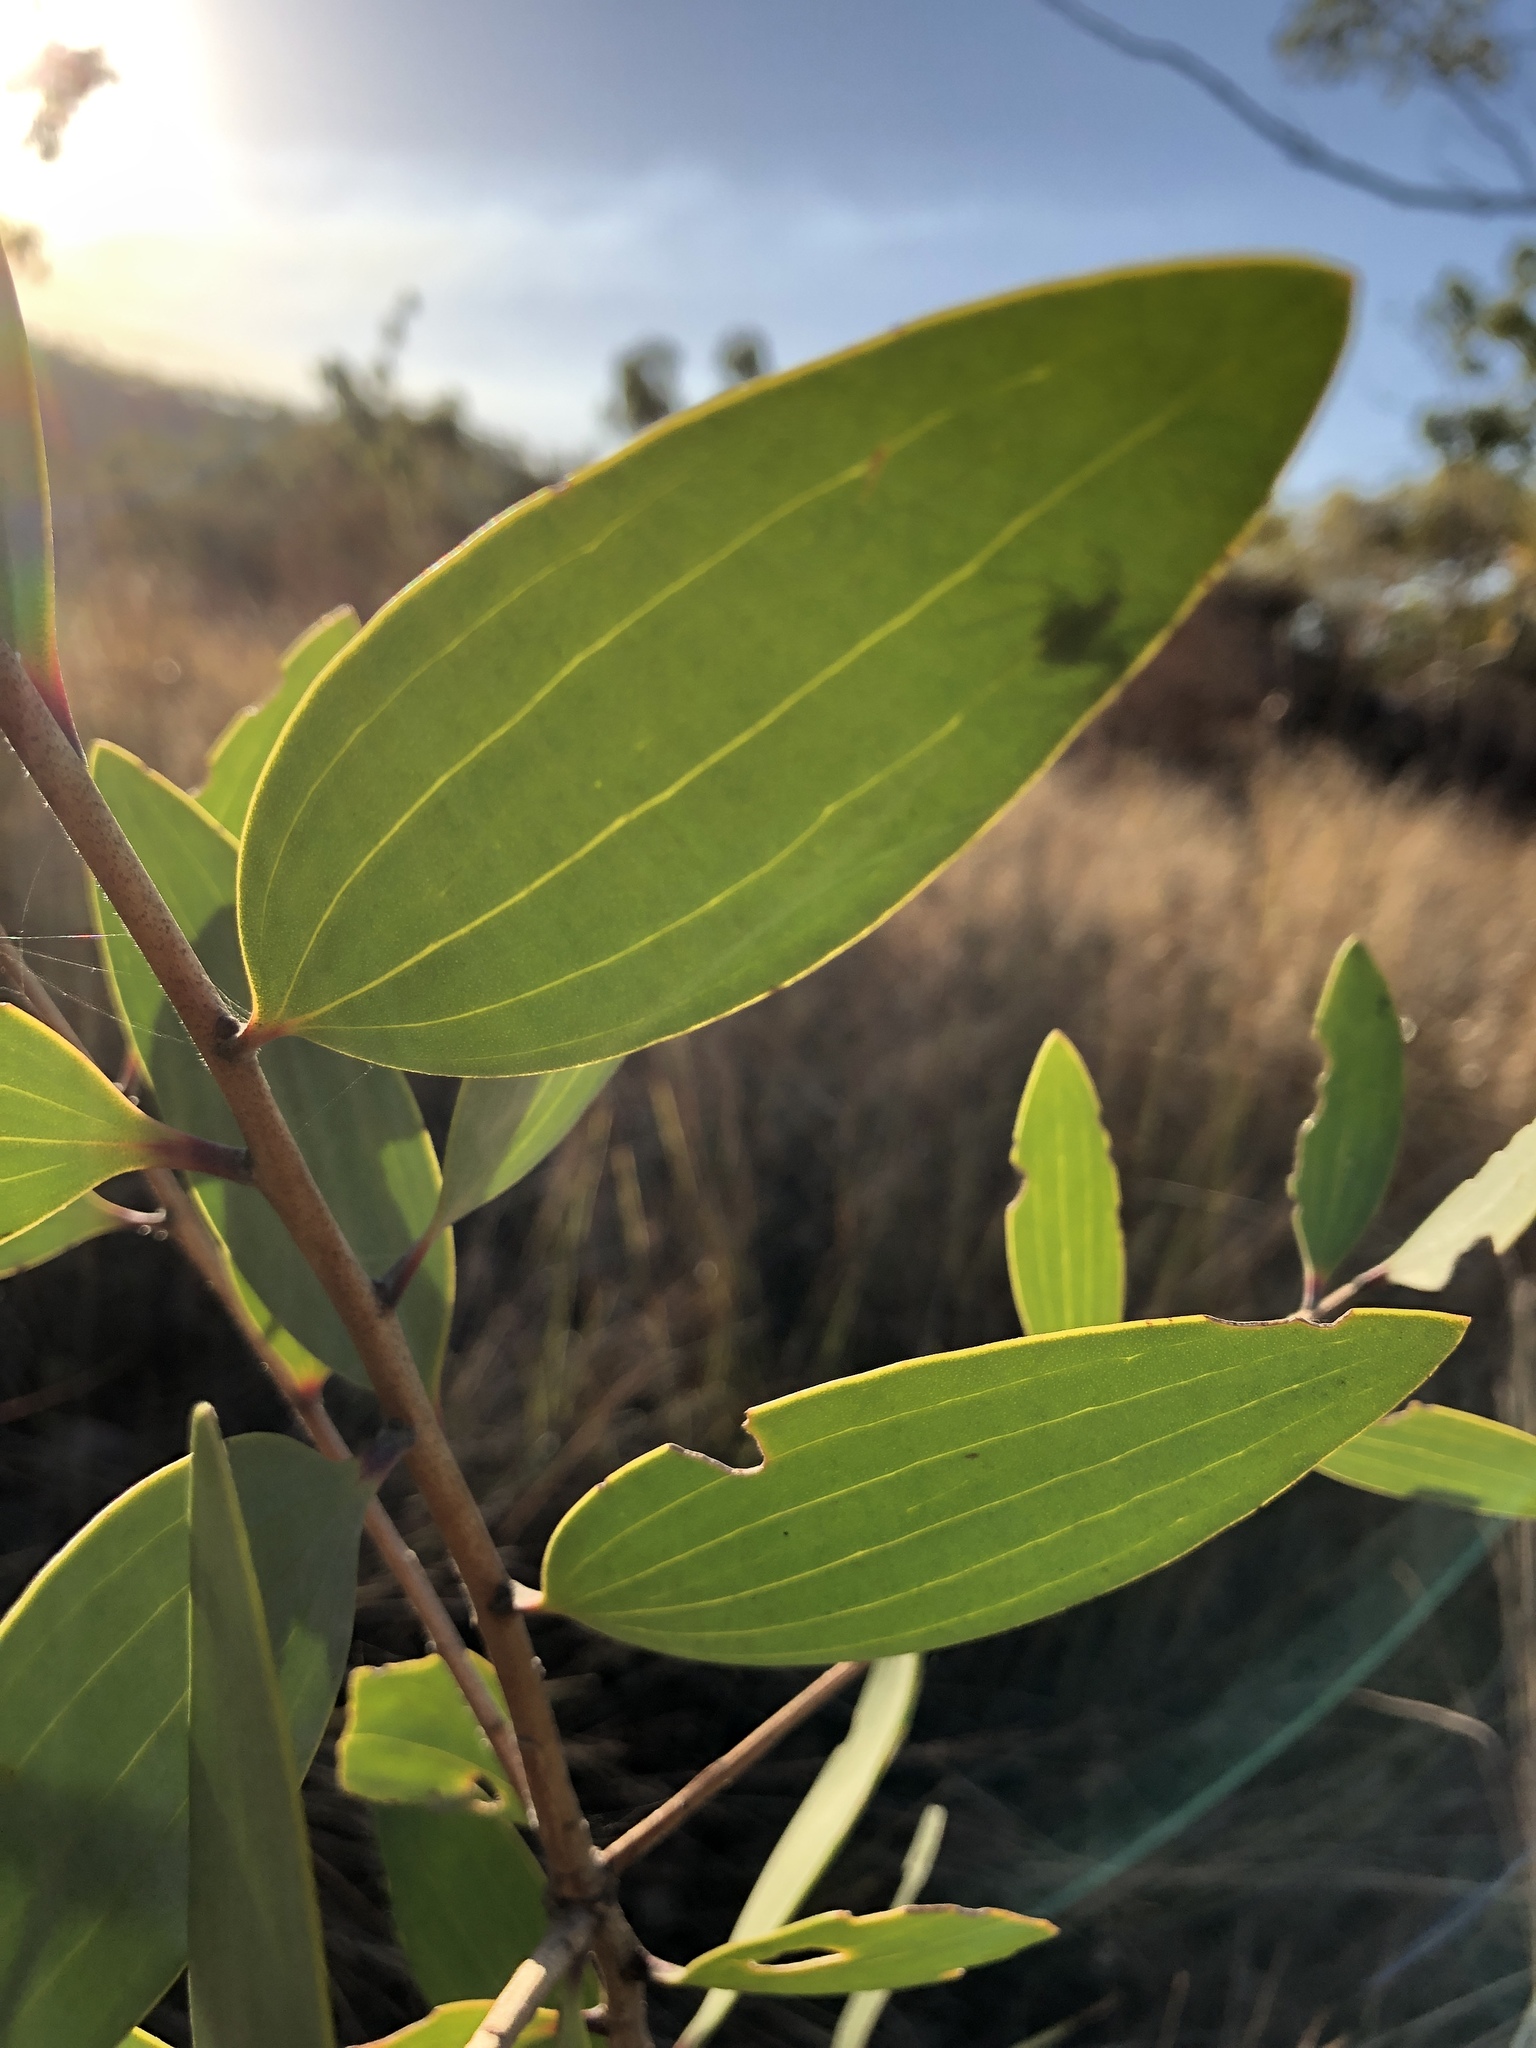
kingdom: Plantae
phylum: Tracheophyta
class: Magnoliopsida
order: Myrtales
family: Myrtaceae
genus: Melaleuca
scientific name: Melaleuca viridiflora
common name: Brown-leaved paperbark
